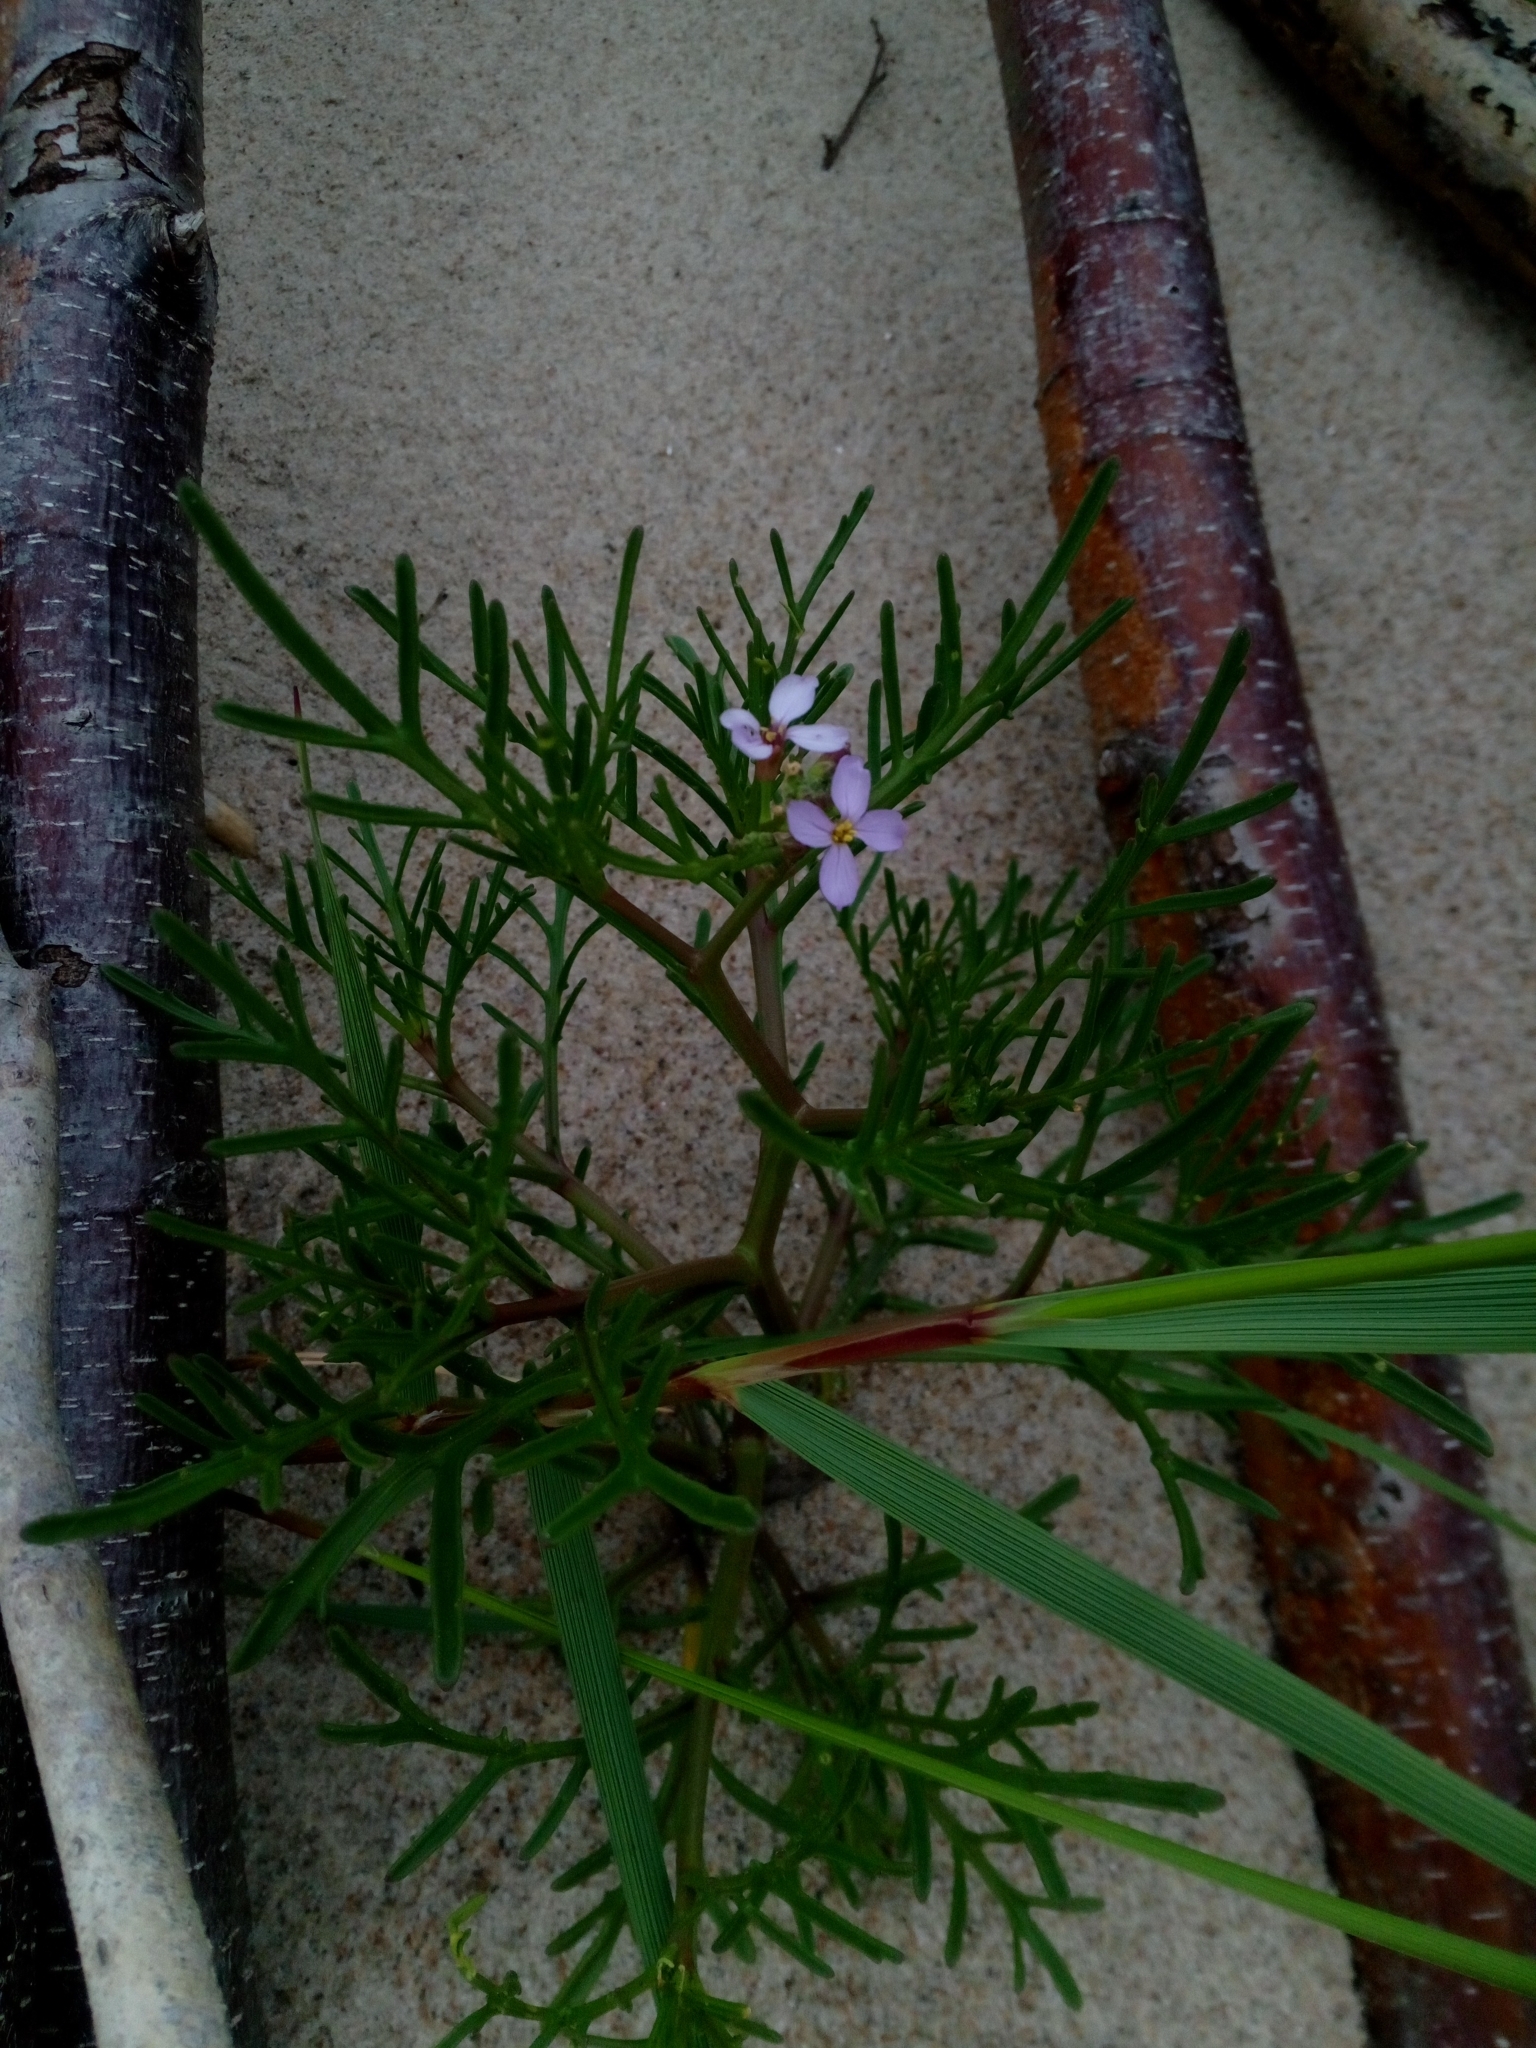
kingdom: Plantae
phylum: Tracheophyta
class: Magnoliopsida
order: Brassicales
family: Brassicaceae
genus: Cakile
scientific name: Cakile maritima
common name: Sea rocket
